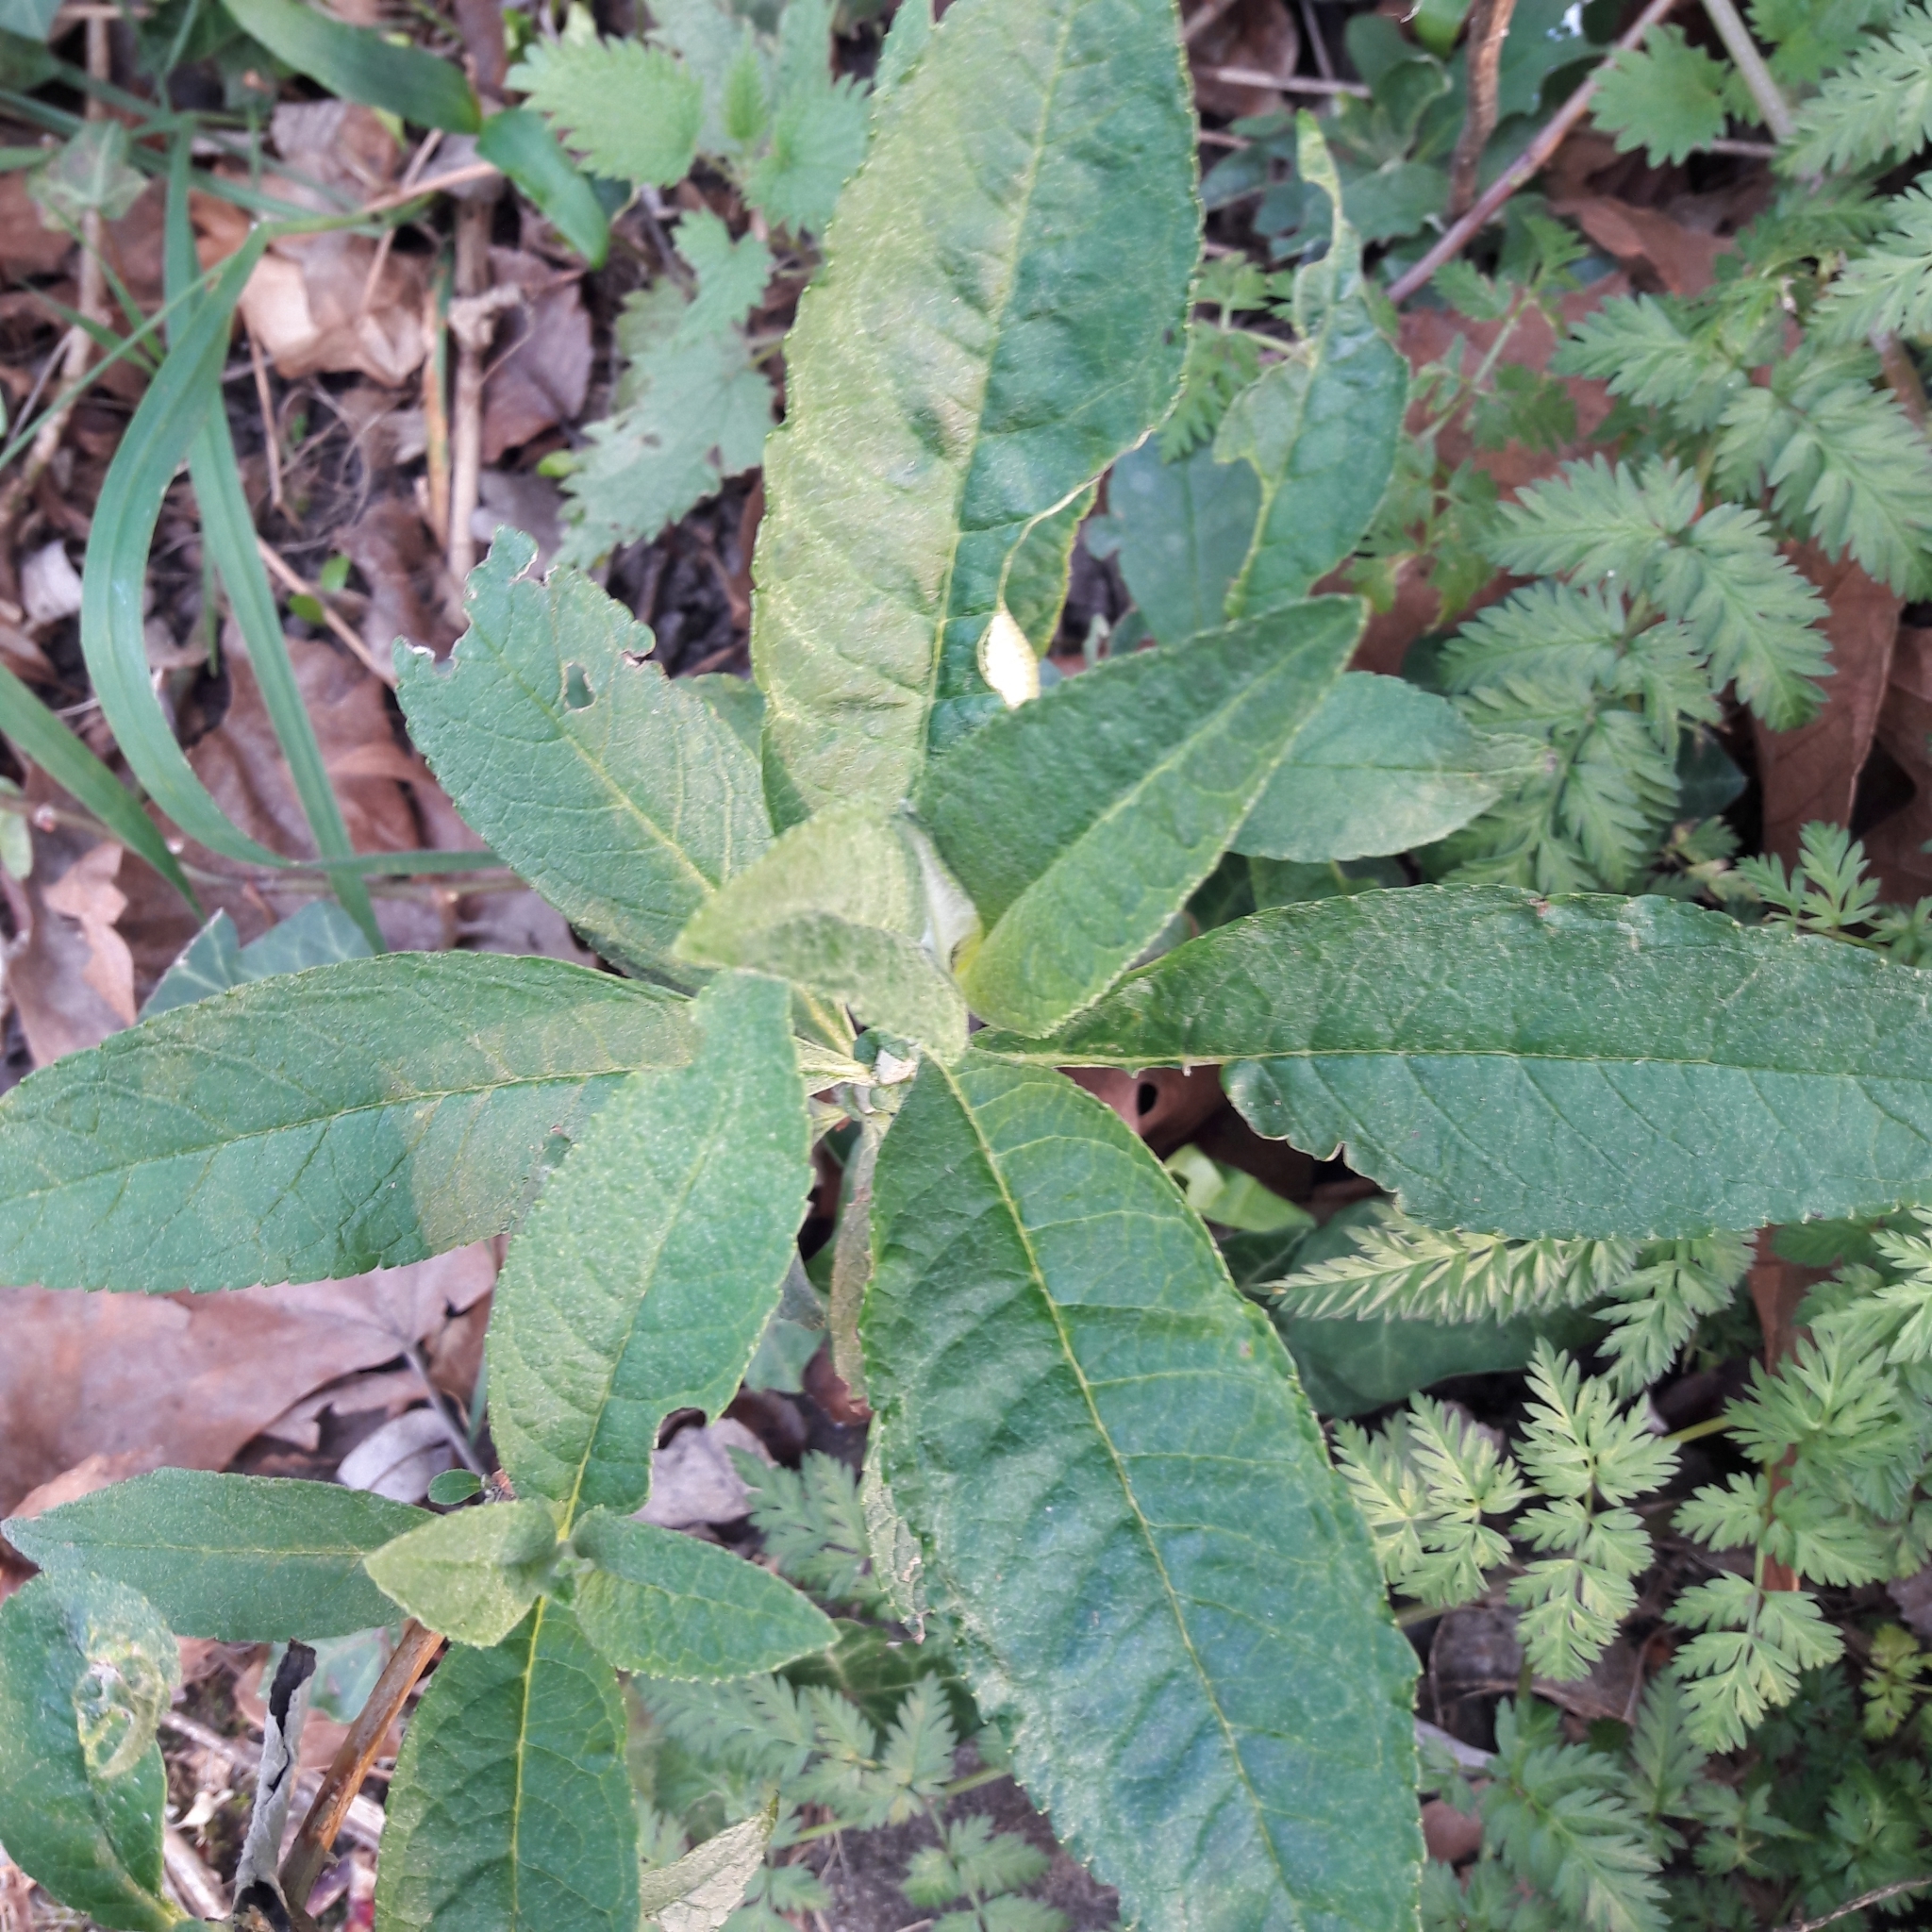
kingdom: Plantae
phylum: Tracheophyta
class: Magnoliopsida
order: Lamiales
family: Scrophulariaceae
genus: Buddleja
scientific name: Buddleja davidii
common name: Butterfly-bush
